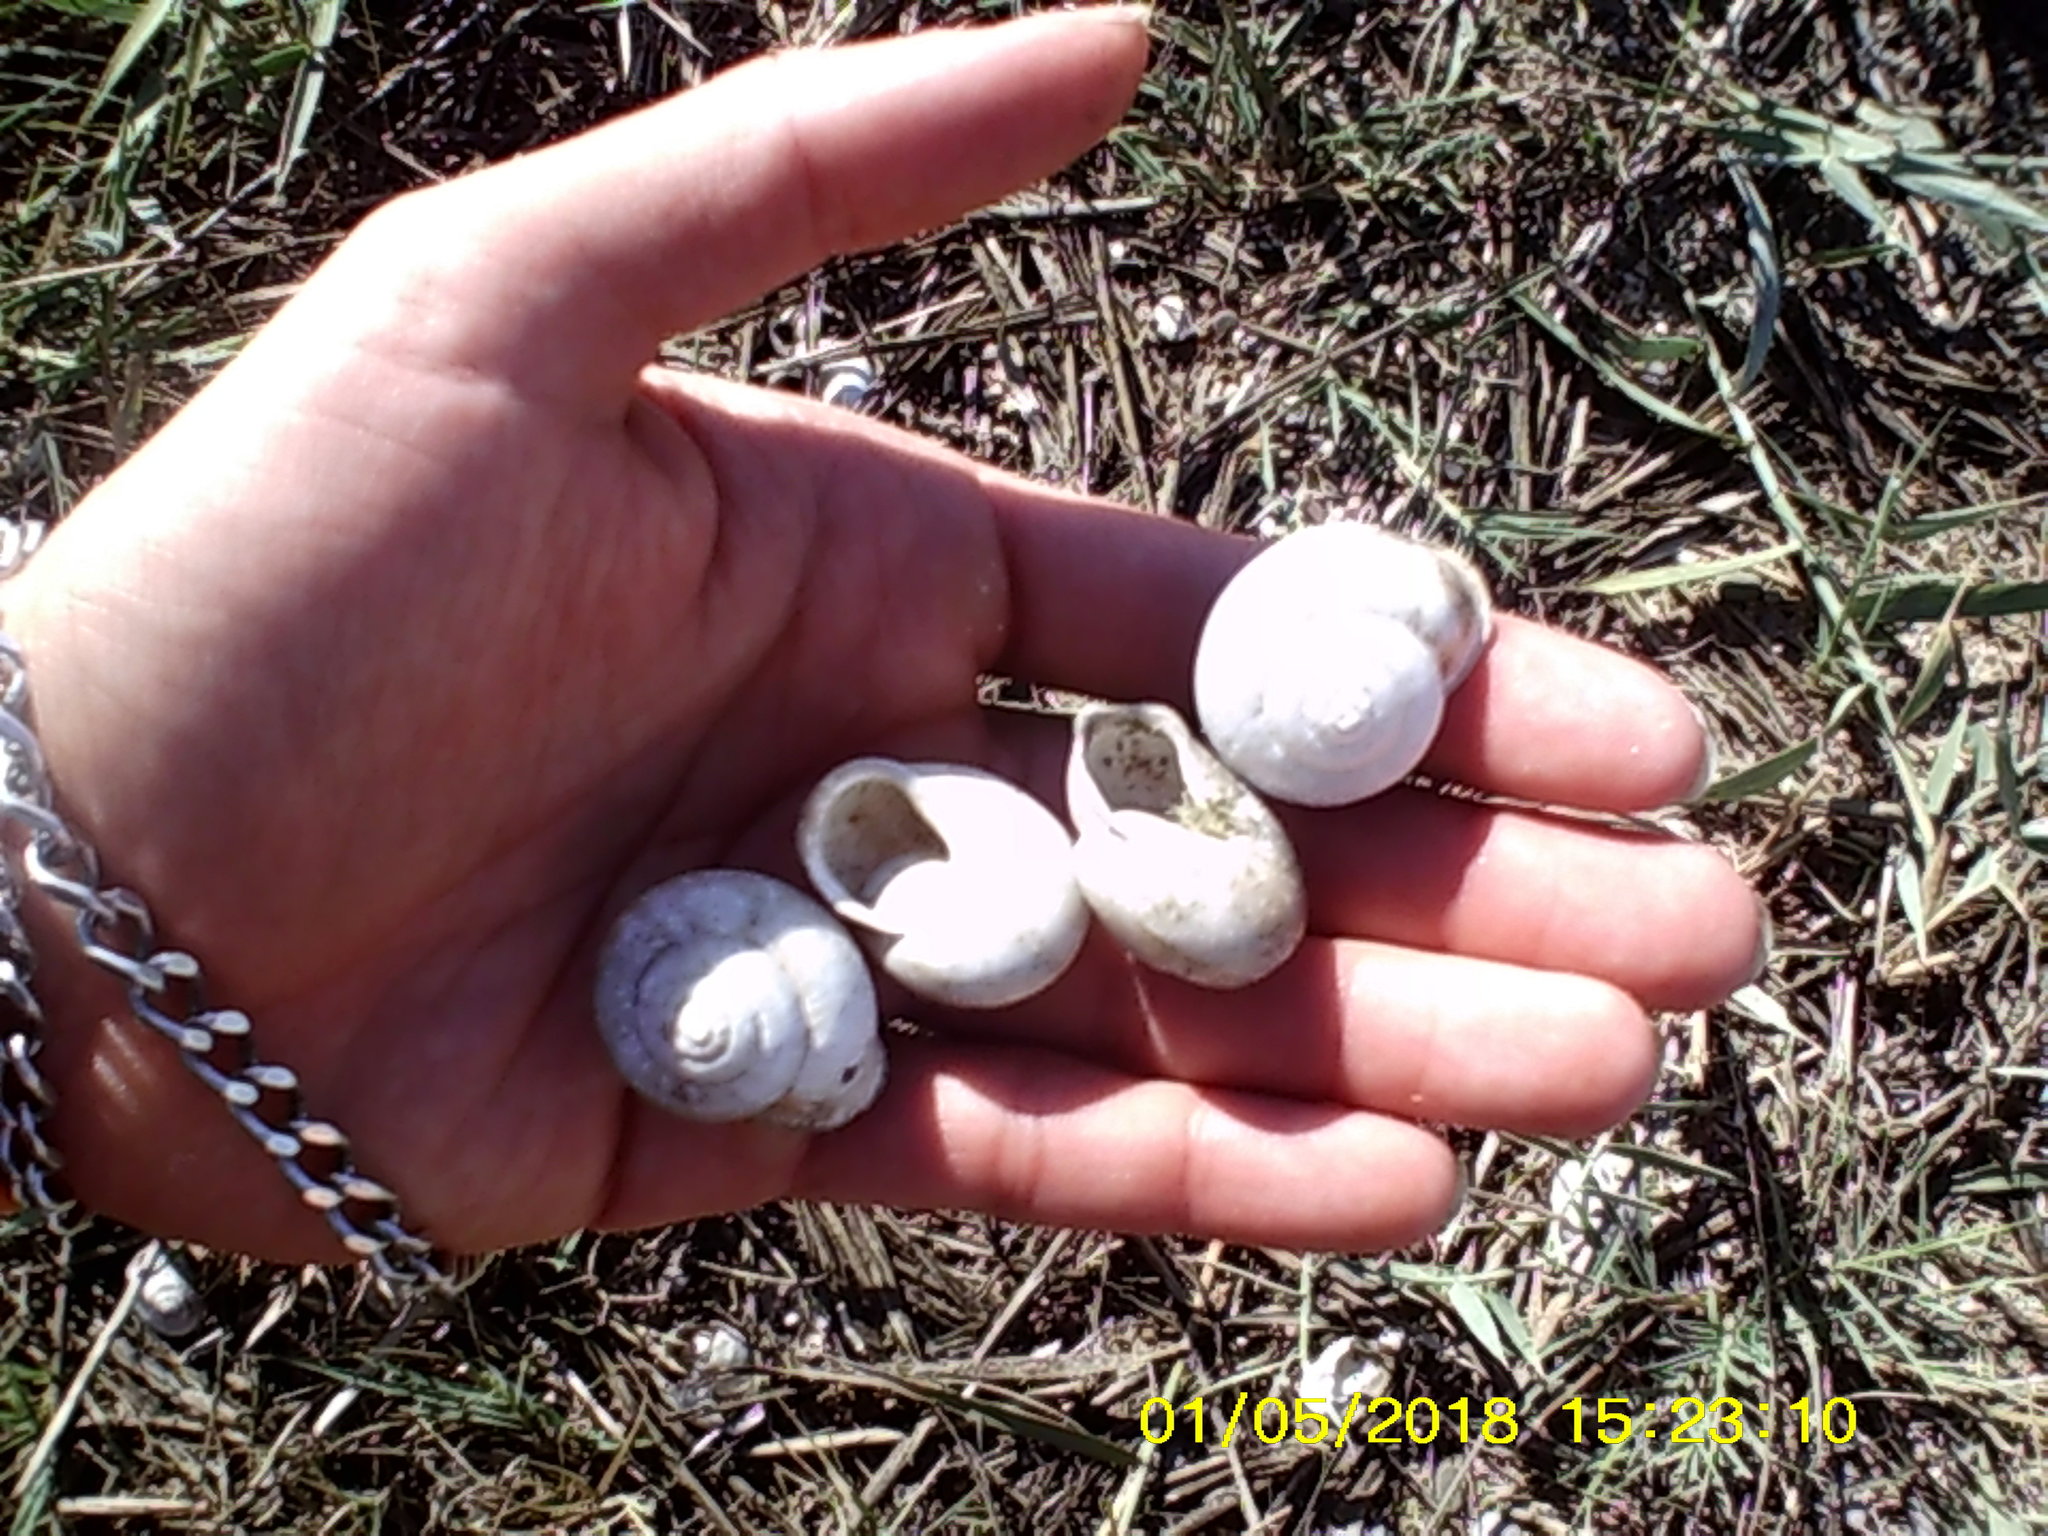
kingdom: Animalia
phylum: Mollusca
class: Gastropoda
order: Stylommatophora
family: Helicidae
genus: Eobania
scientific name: Eobania vermiculata
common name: Chocolateband snail
